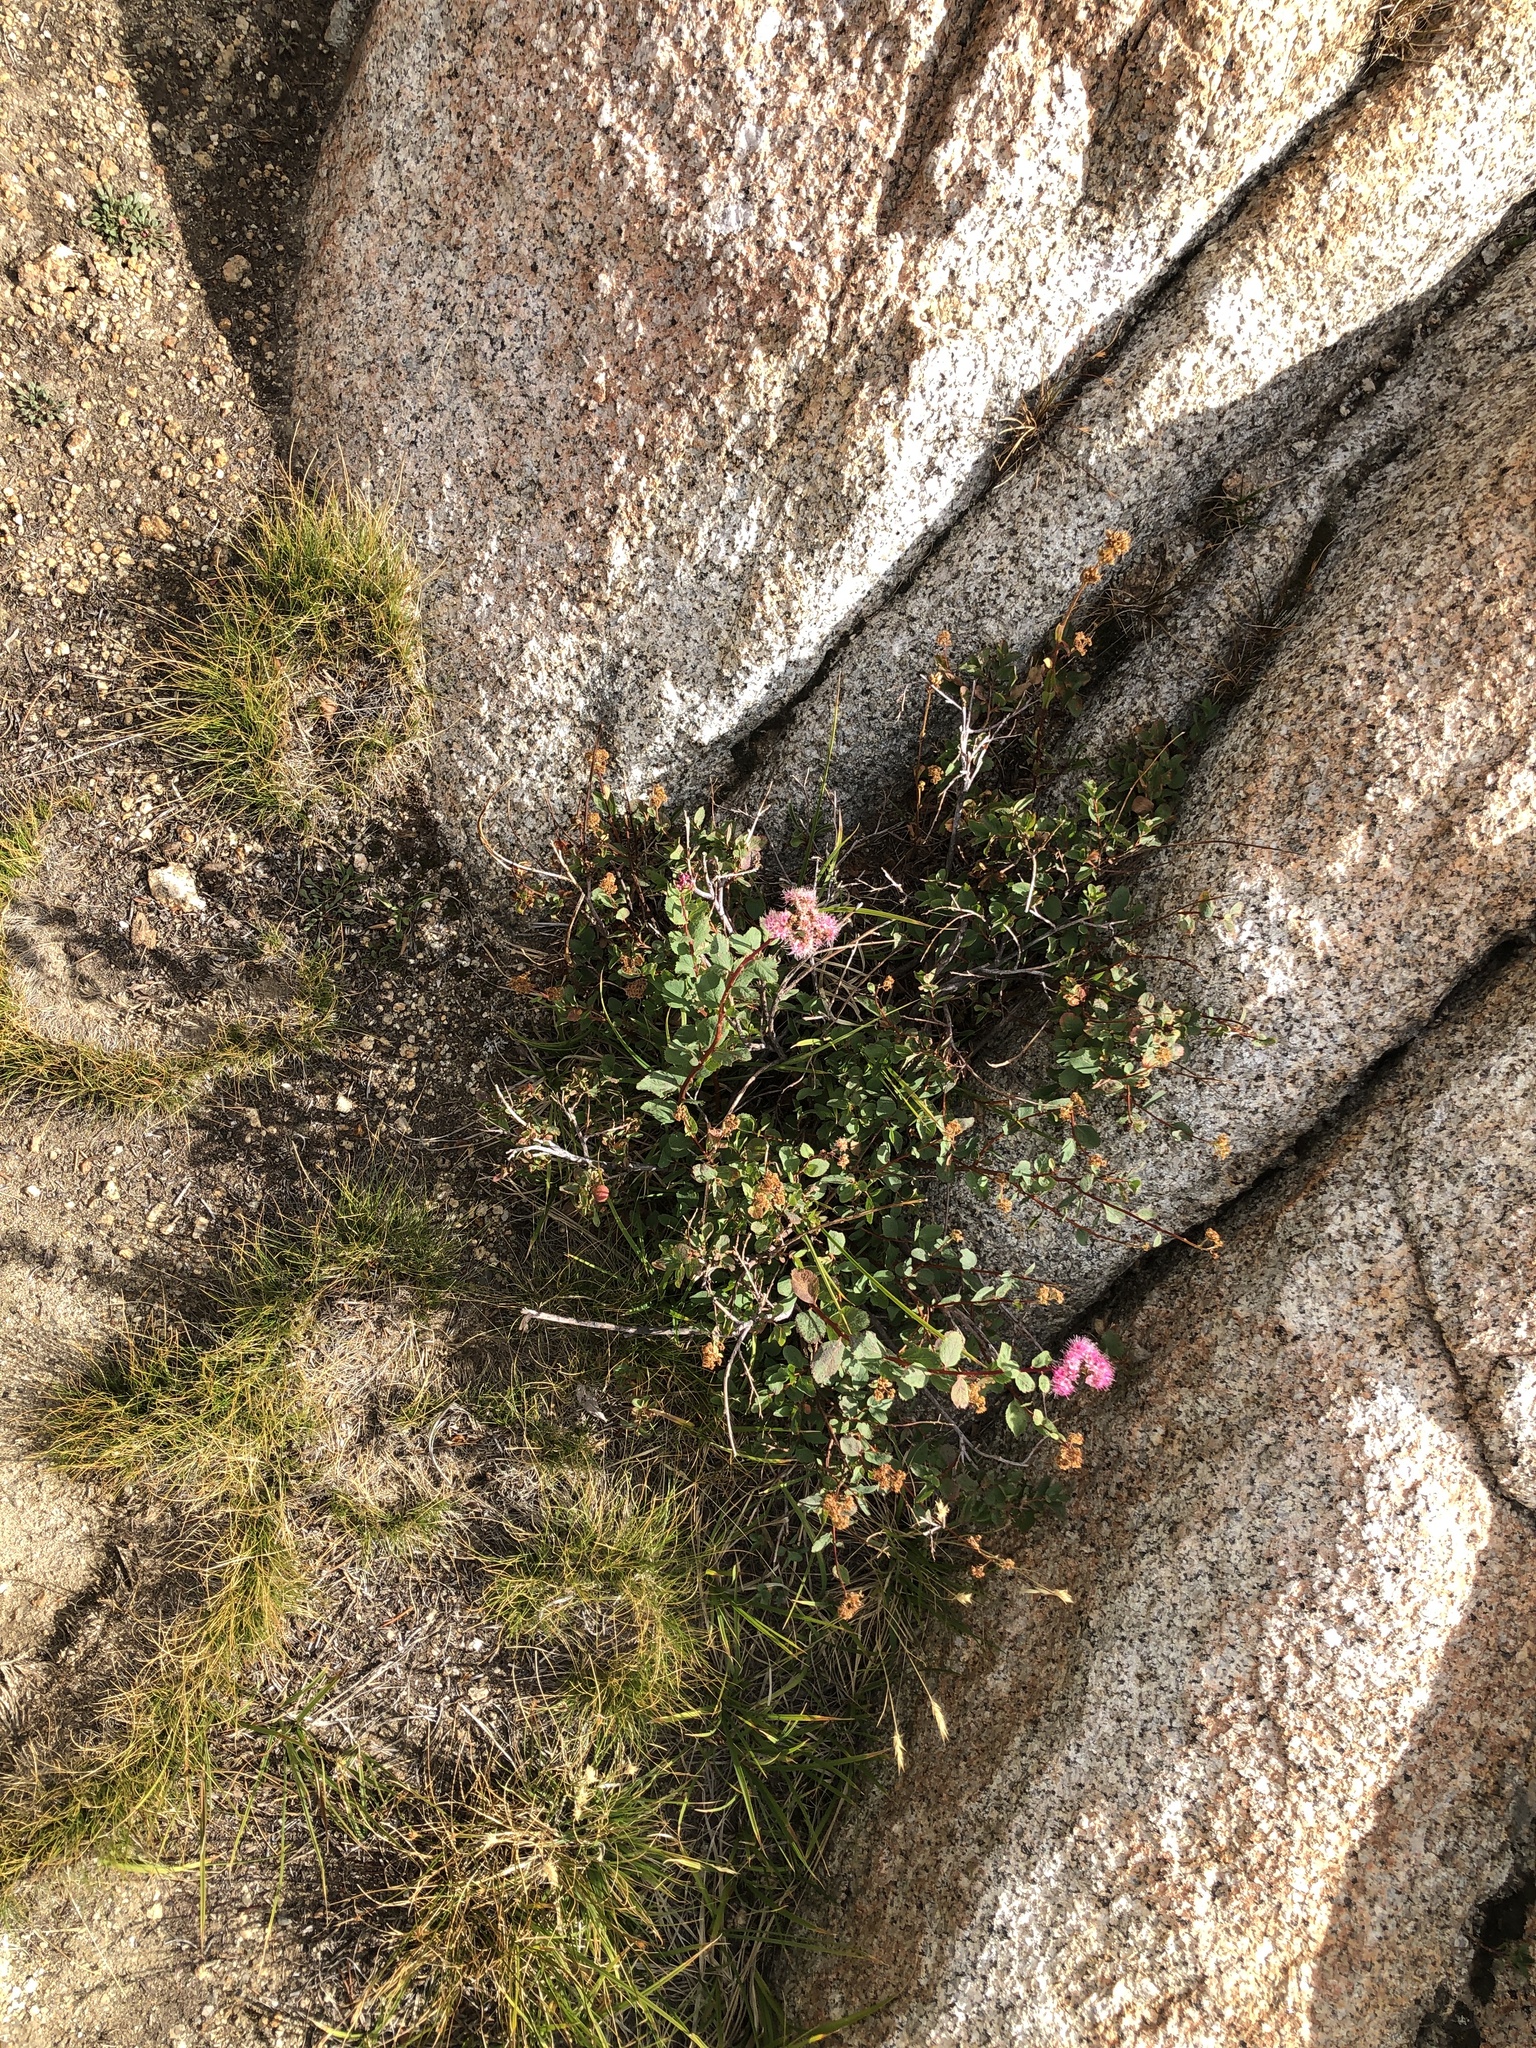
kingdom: Plantae
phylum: Tracheophyta
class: Magnoliopsida
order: Rosales
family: Rosaceae
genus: Spiraea
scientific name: Spiraea splendens
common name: Subalpine meadowsweet
